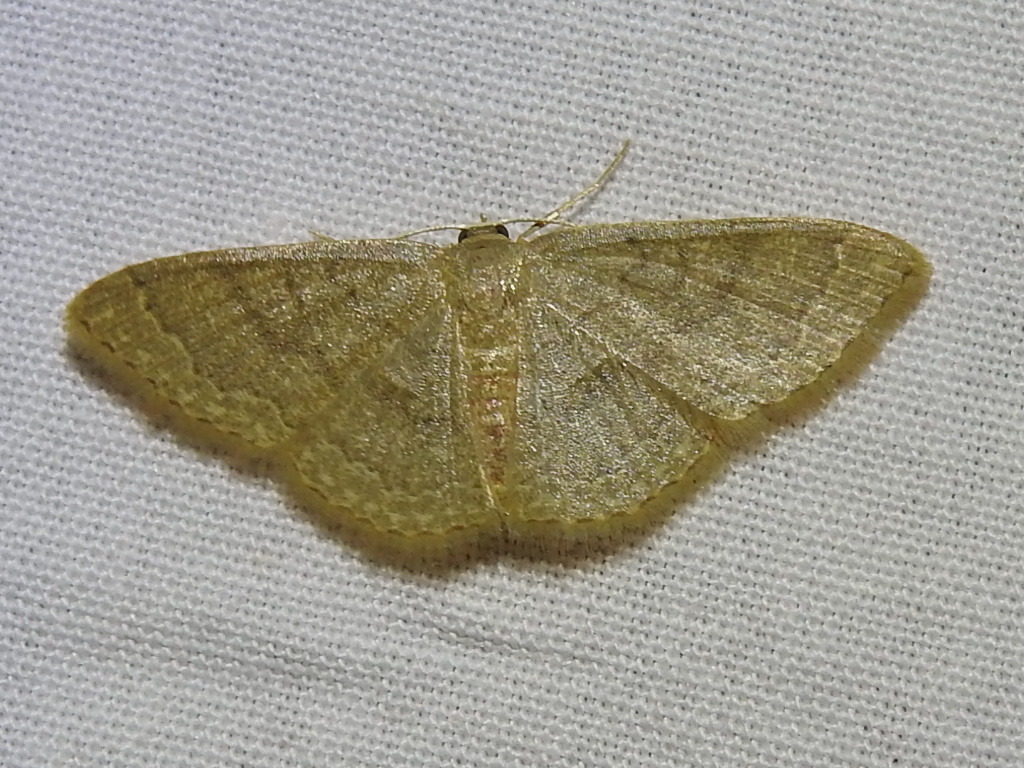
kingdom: Animalia
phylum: Arthropoda
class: Insecta
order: Lepidoptera
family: Geometridae
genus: Pleuroprucha
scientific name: Pleuroprucha insulsaria
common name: Common tan wave
